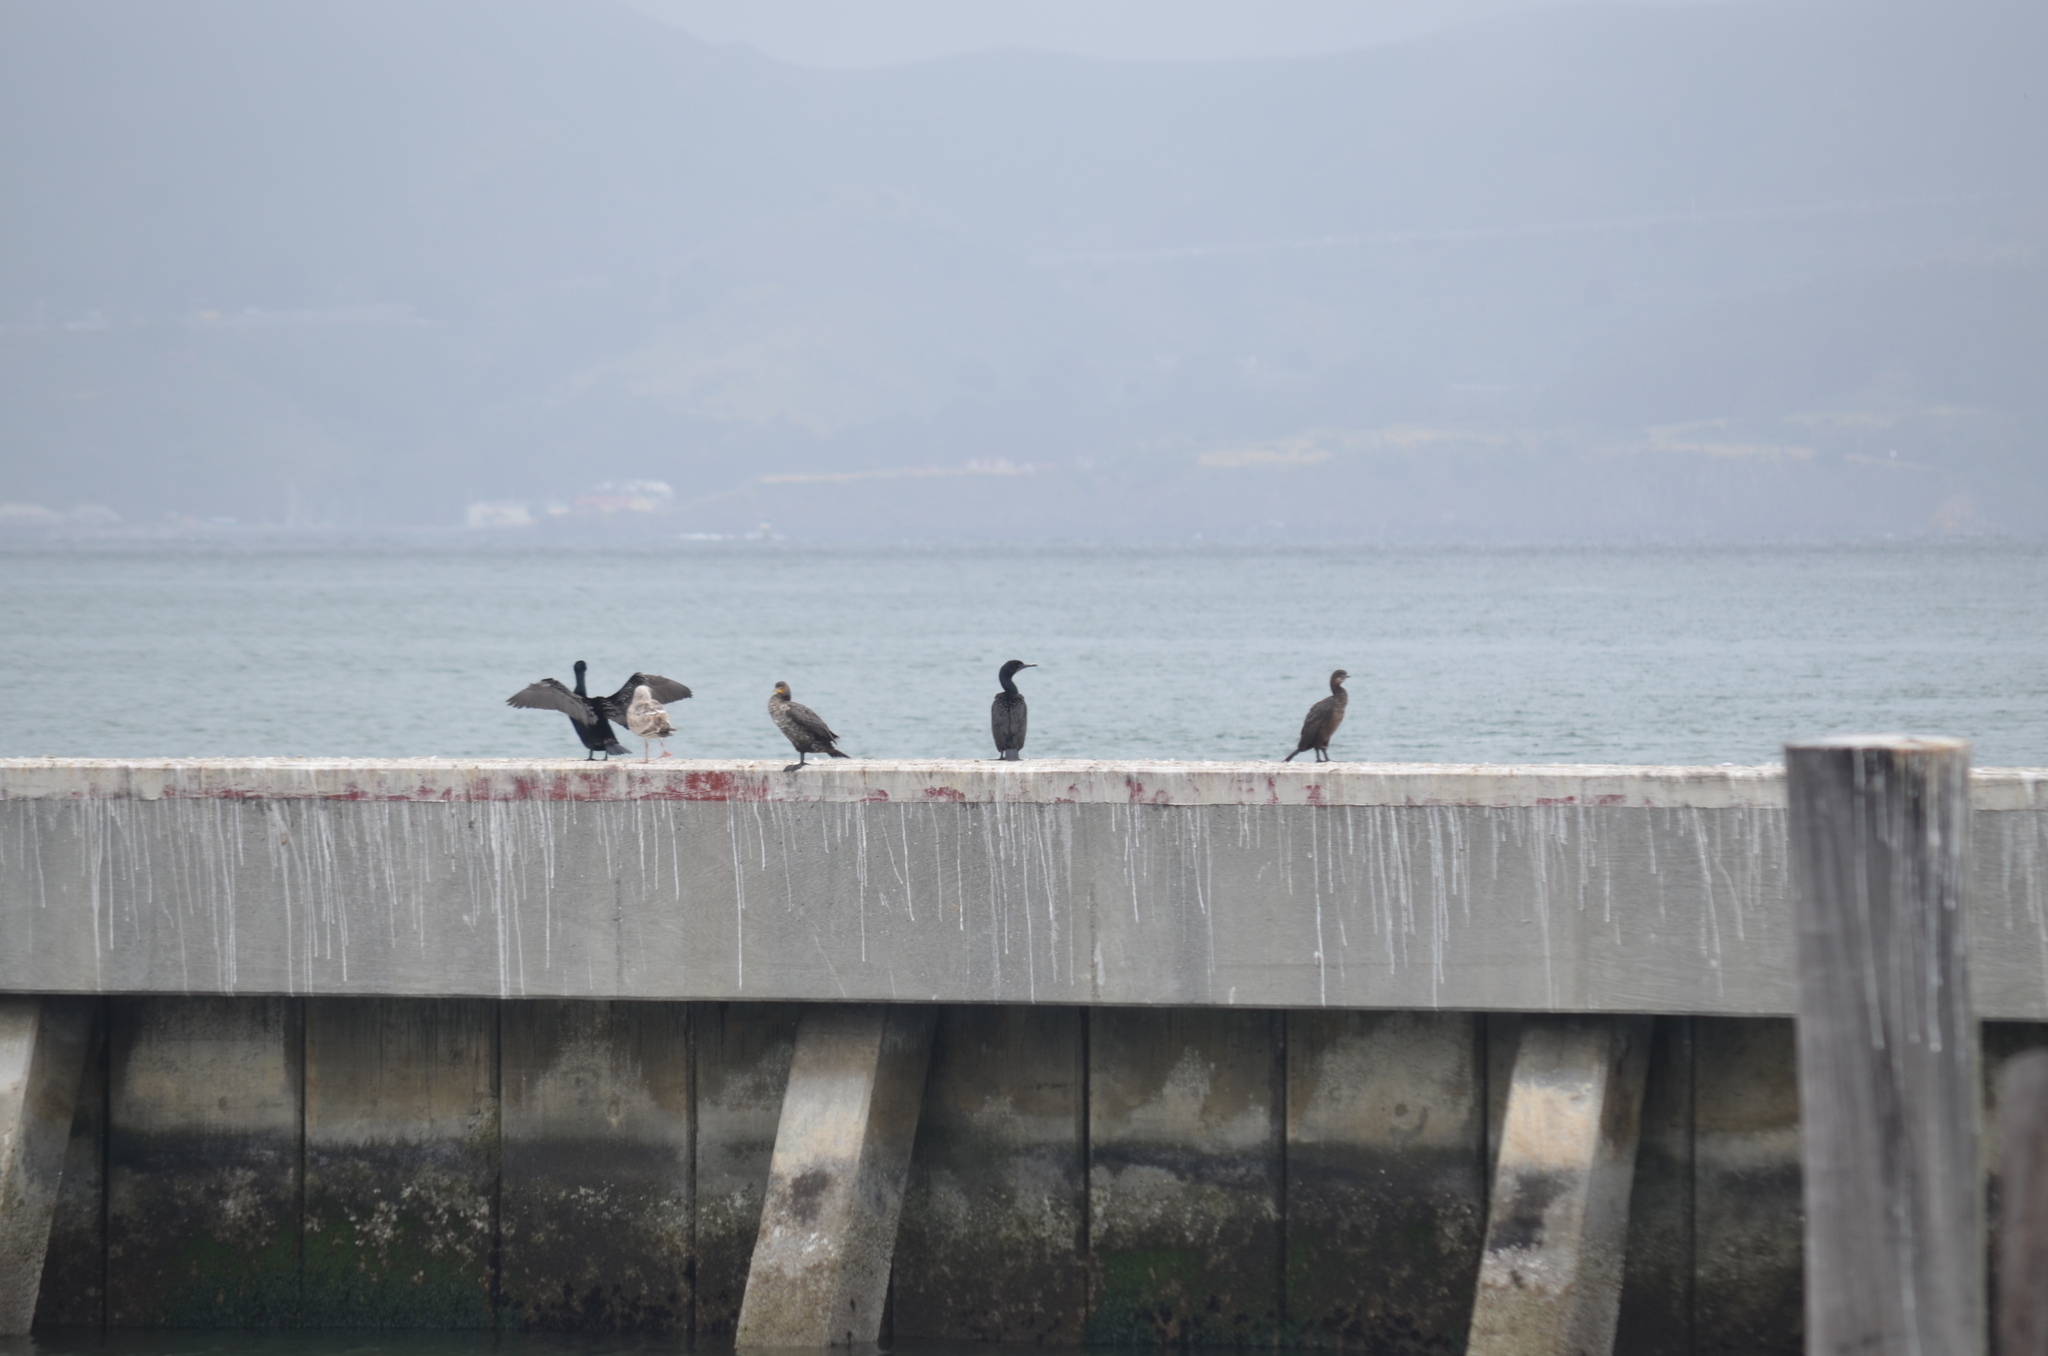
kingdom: Animalia
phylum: Chordata
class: Aves
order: Suliformes
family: Phalacrocoracidae
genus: Phalacrocorax
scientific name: Phalacrocorax auritus
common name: Double-crested cormorant
